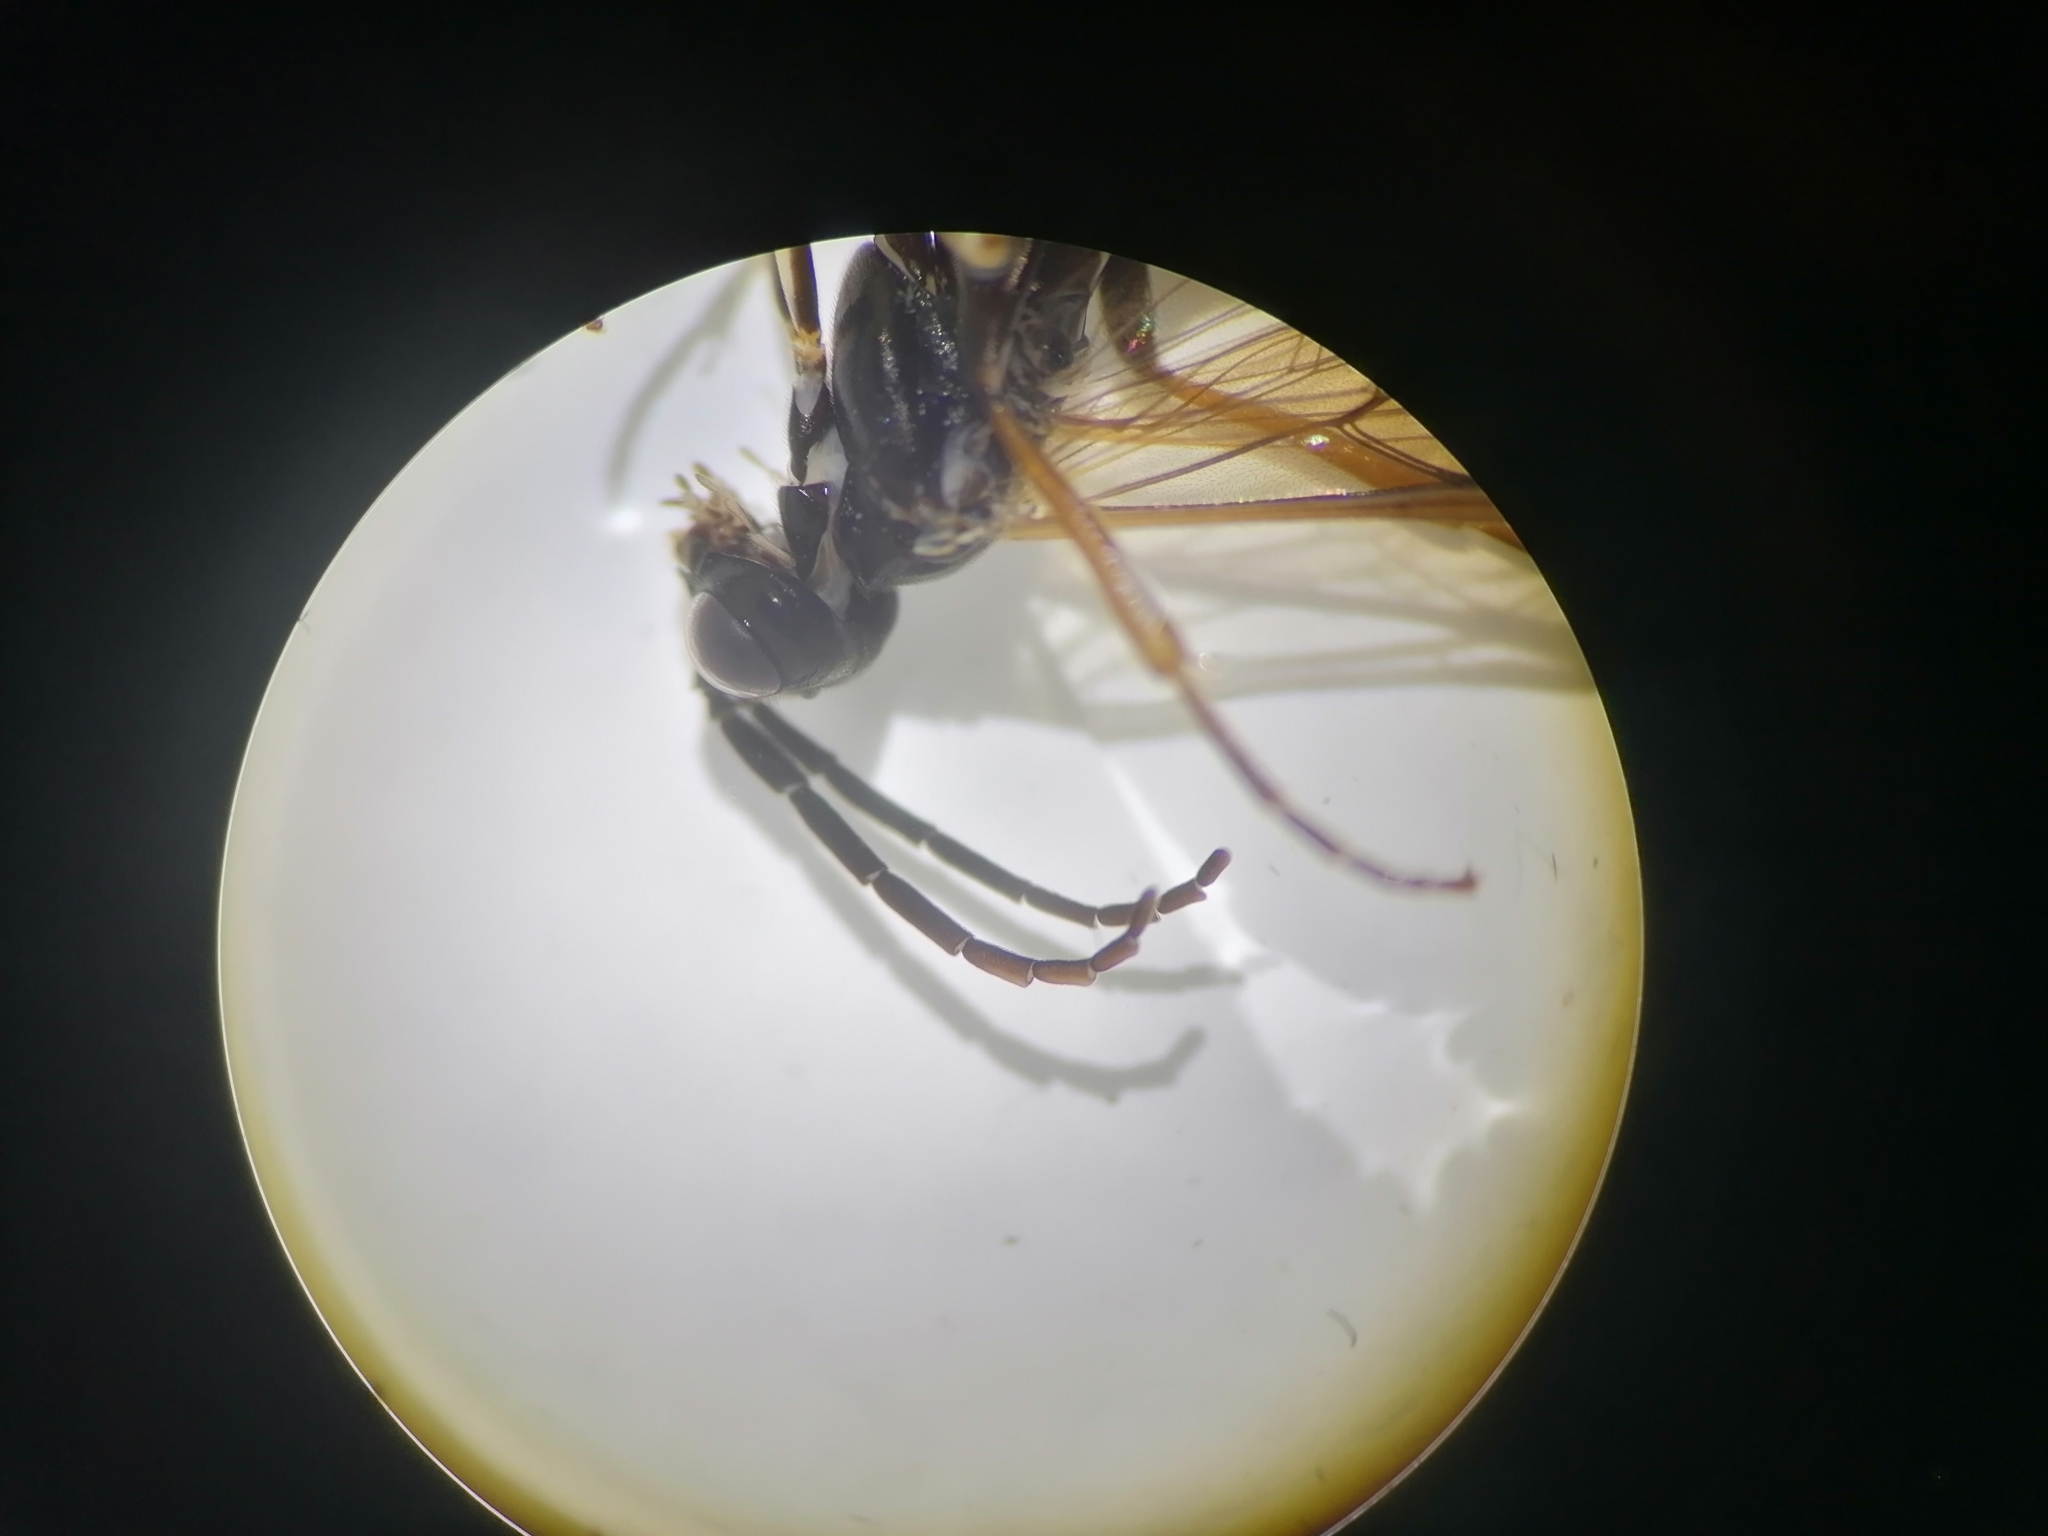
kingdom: Animalia
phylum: Arthropoda
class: Insecta
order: Hymenoptera
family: Tenthredinidae
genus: Allantus
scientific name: Allantus rufocinctus
